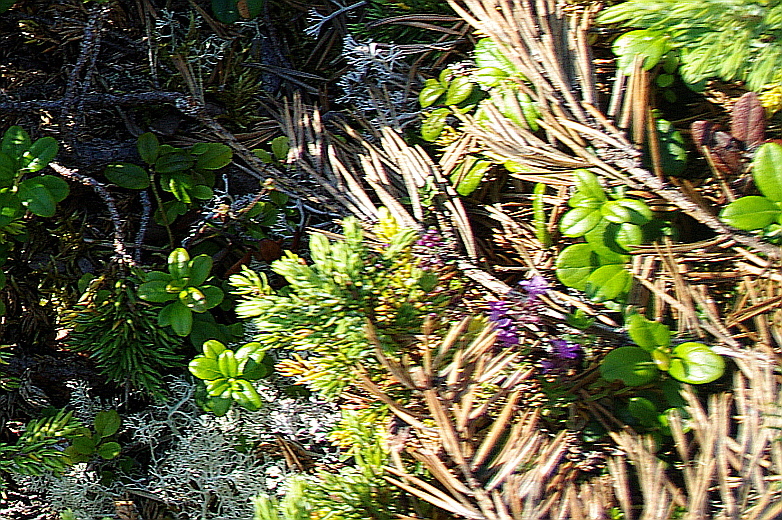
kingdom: Plantae
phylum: Tracheophyta
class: Magnoliopsida
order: Ericales
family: Ericaceae
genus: Vaccinium
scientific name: Vaccinium vitis-idaea
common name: Cowberry
